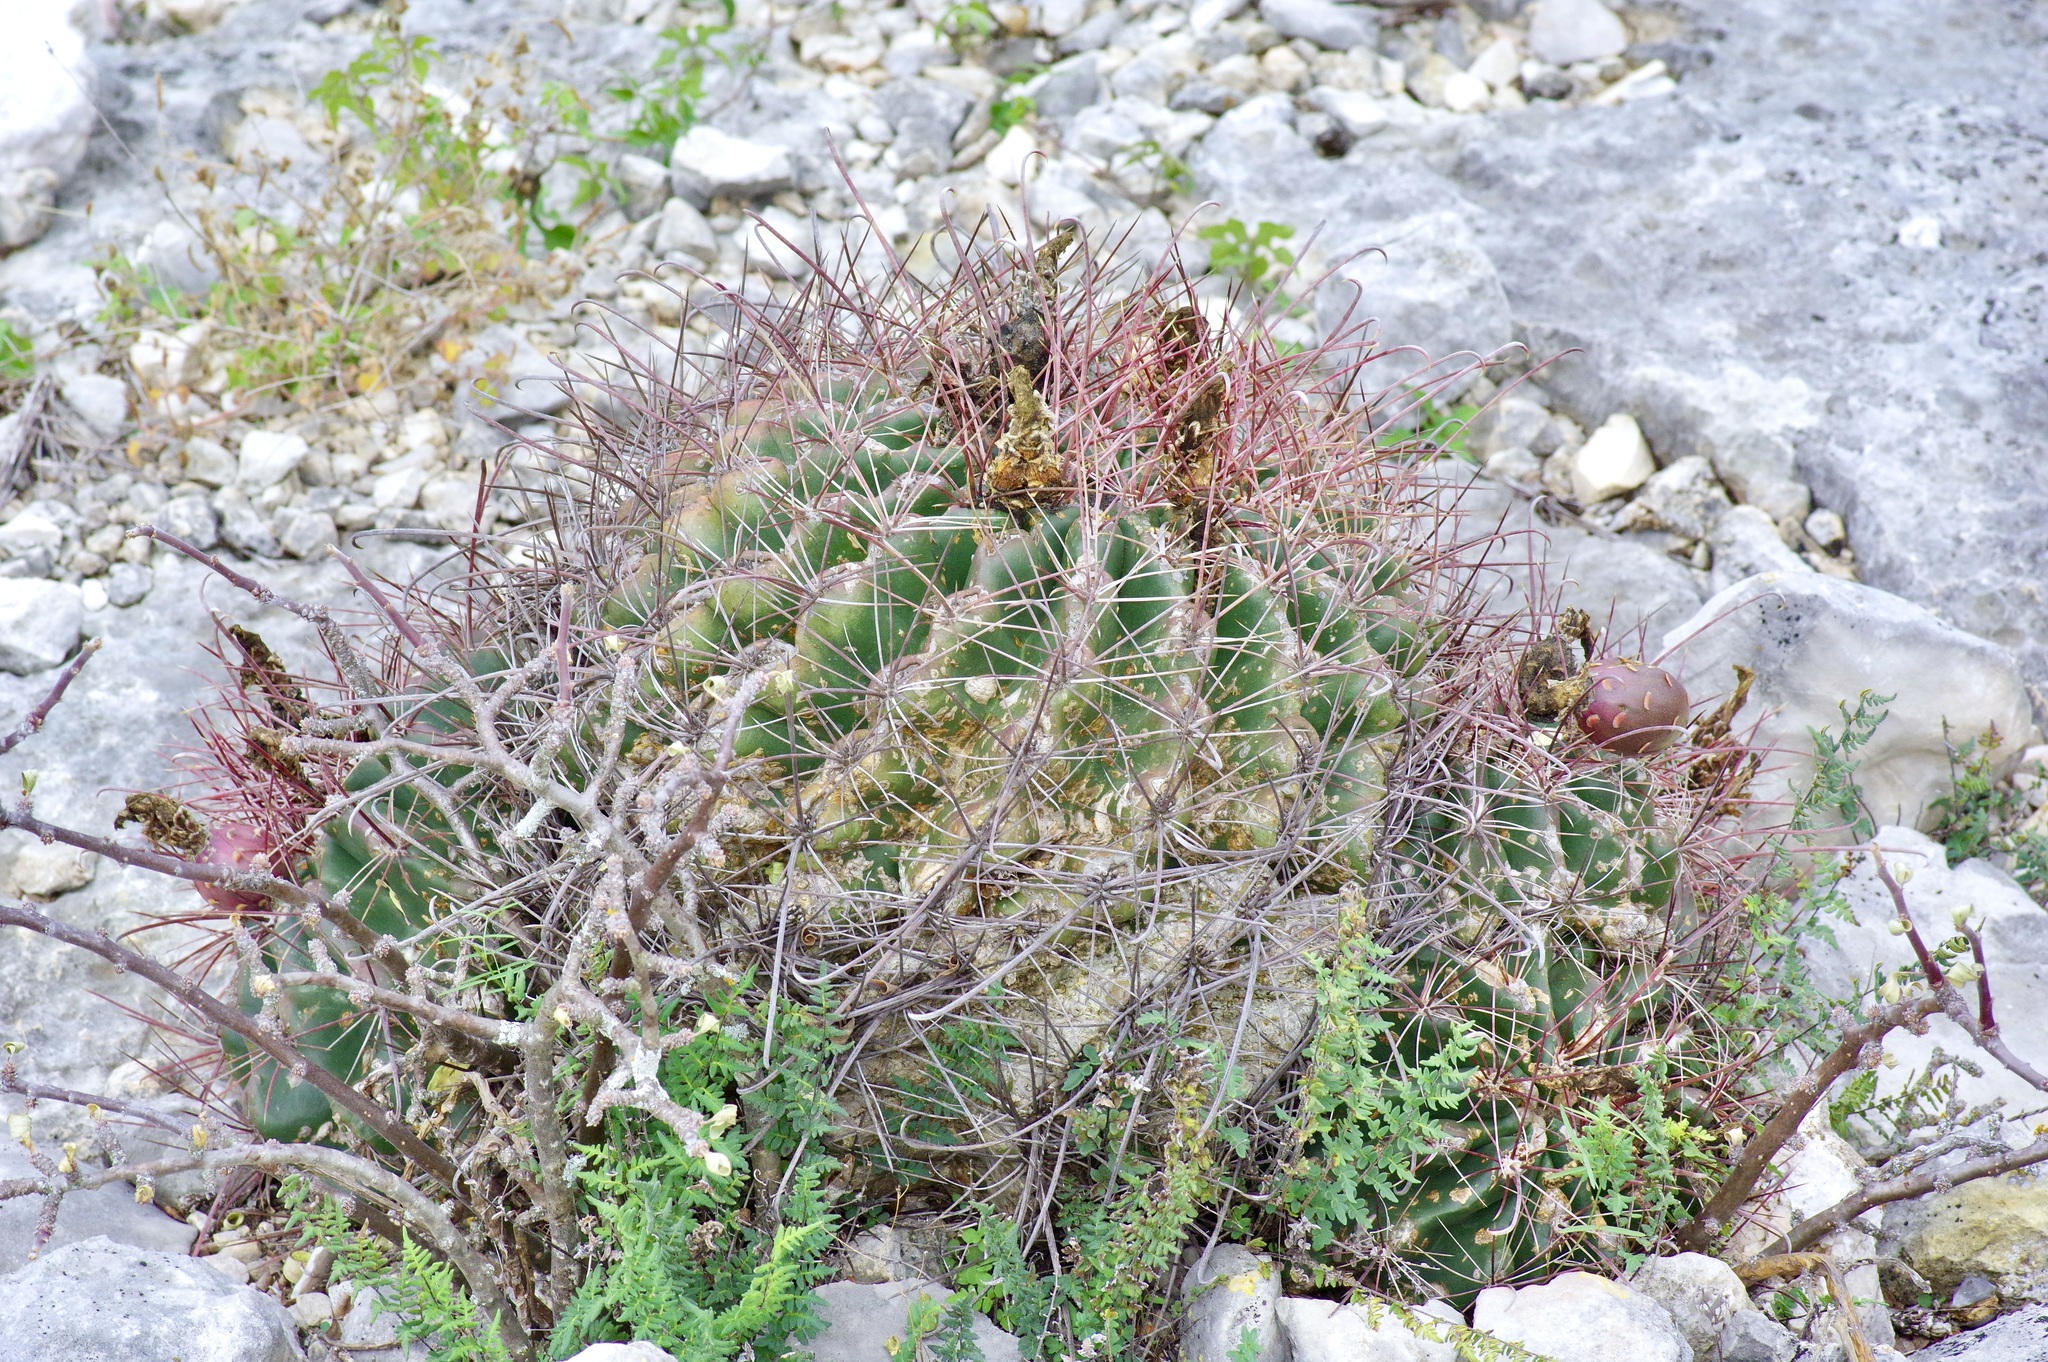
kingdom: Plantae
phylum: Tracheophyta
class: Magnoliopsida
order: Caryophyllales
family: Cactaceae
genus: Bisnaga
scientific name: Bisnaga hamatacantha
